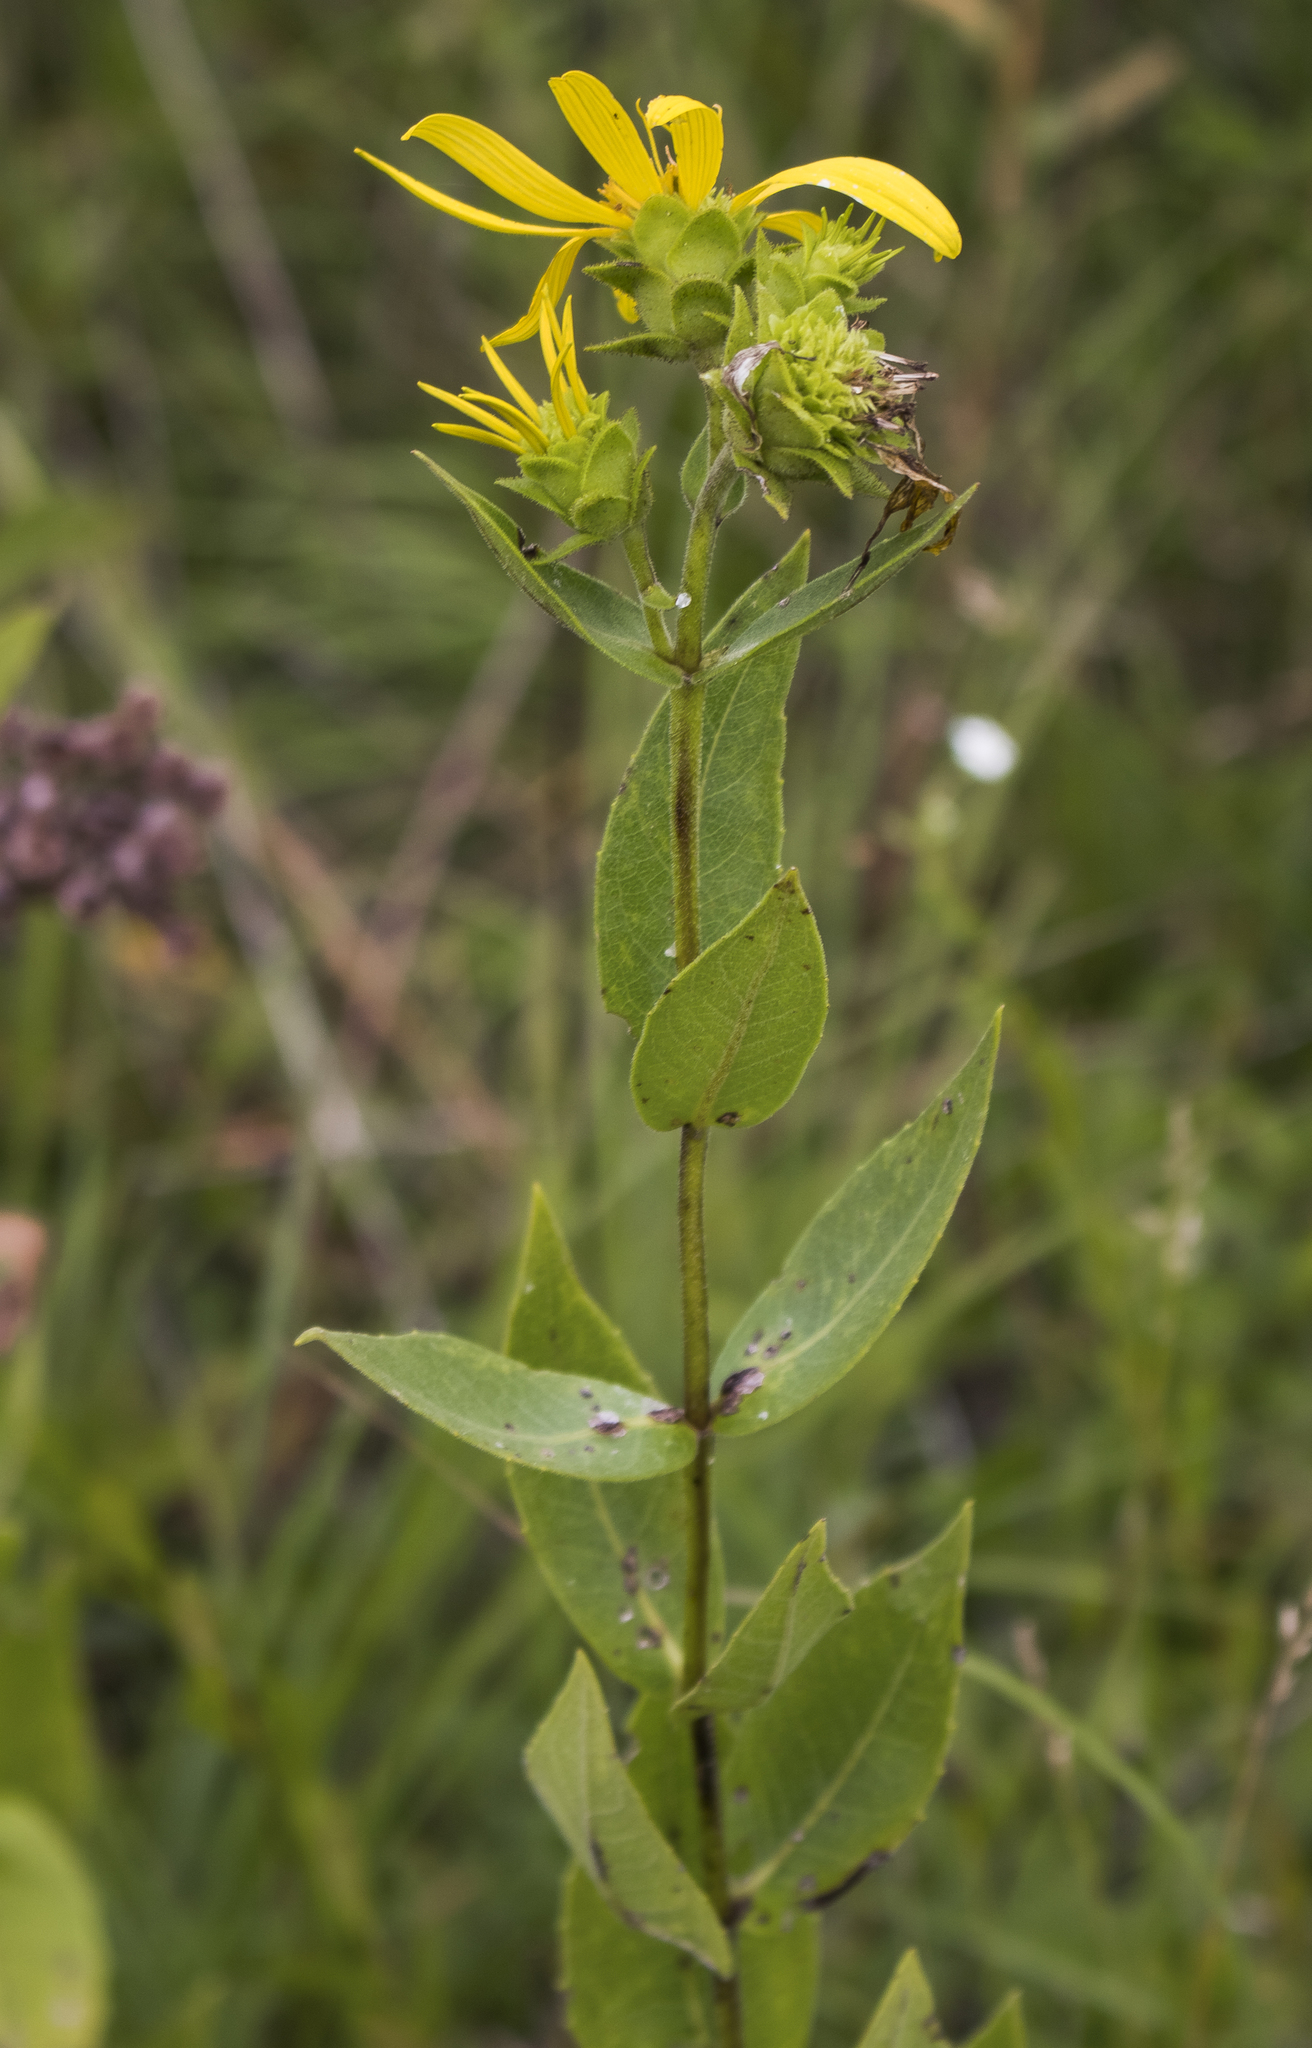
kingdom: Plantae
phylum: Tracheophyta
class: Magnoliopsida
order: Asterales
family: Asteraceae
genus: Silphium
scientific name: Silphium integrifolium
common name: Whole-leaf rosinweed
